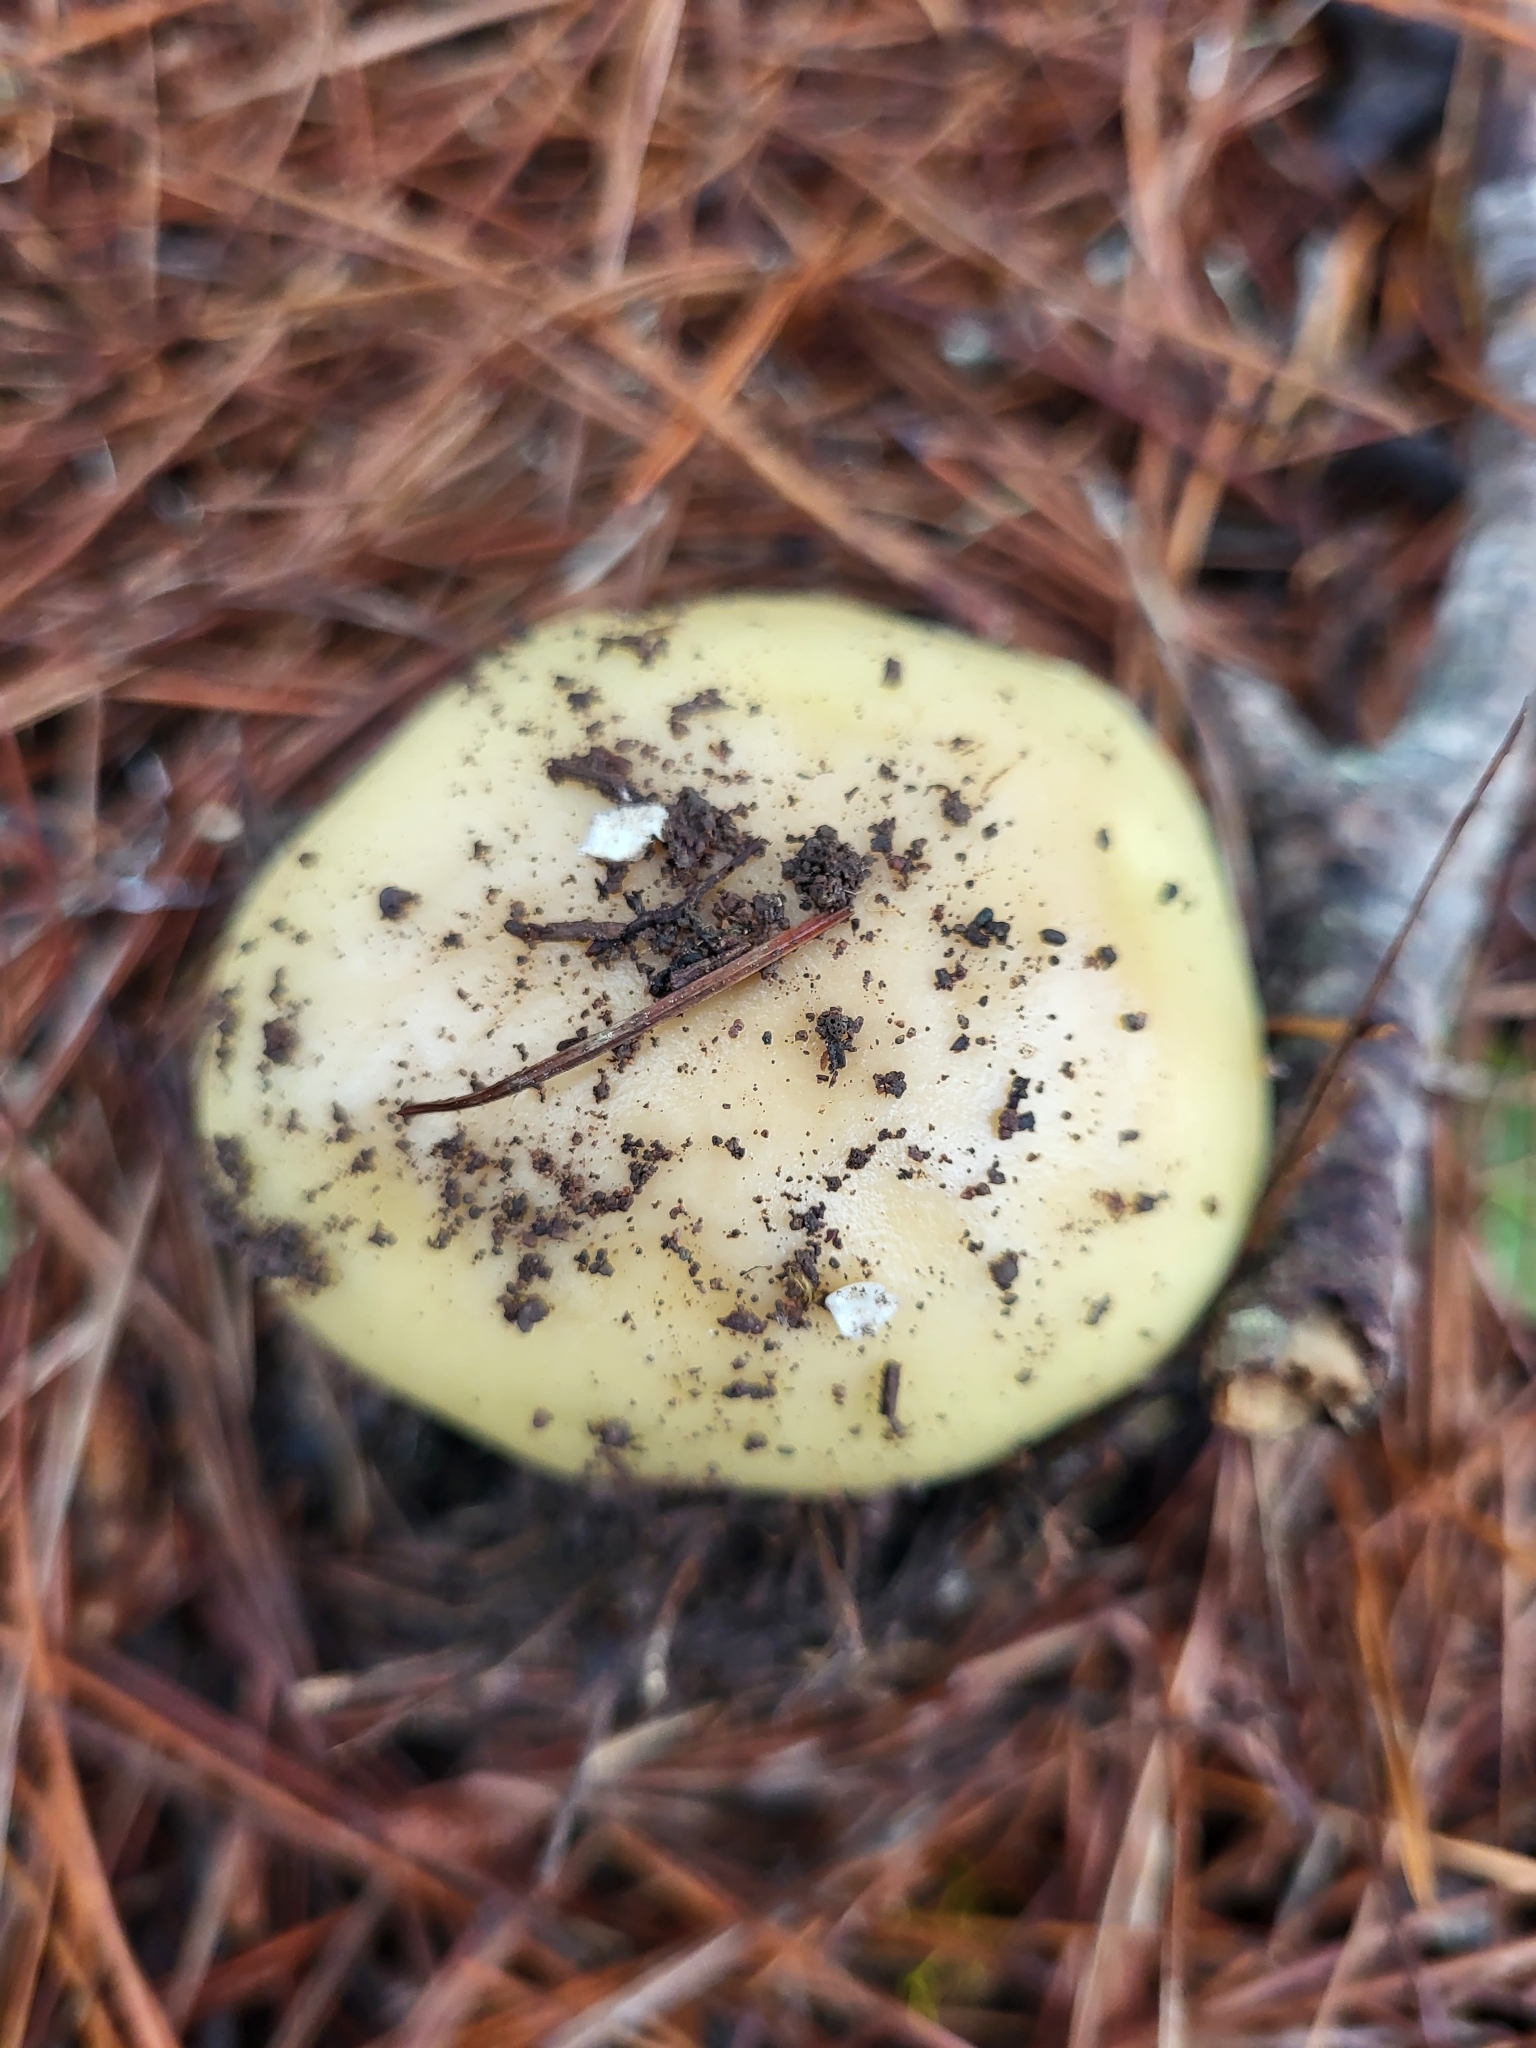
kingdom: Fungi
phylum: Basidiomycota
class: Agaricomycetes
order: Agaricales
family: Amanitaceae
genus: Amanita
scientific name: Amanita gemmata
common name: Jewelled amanita
